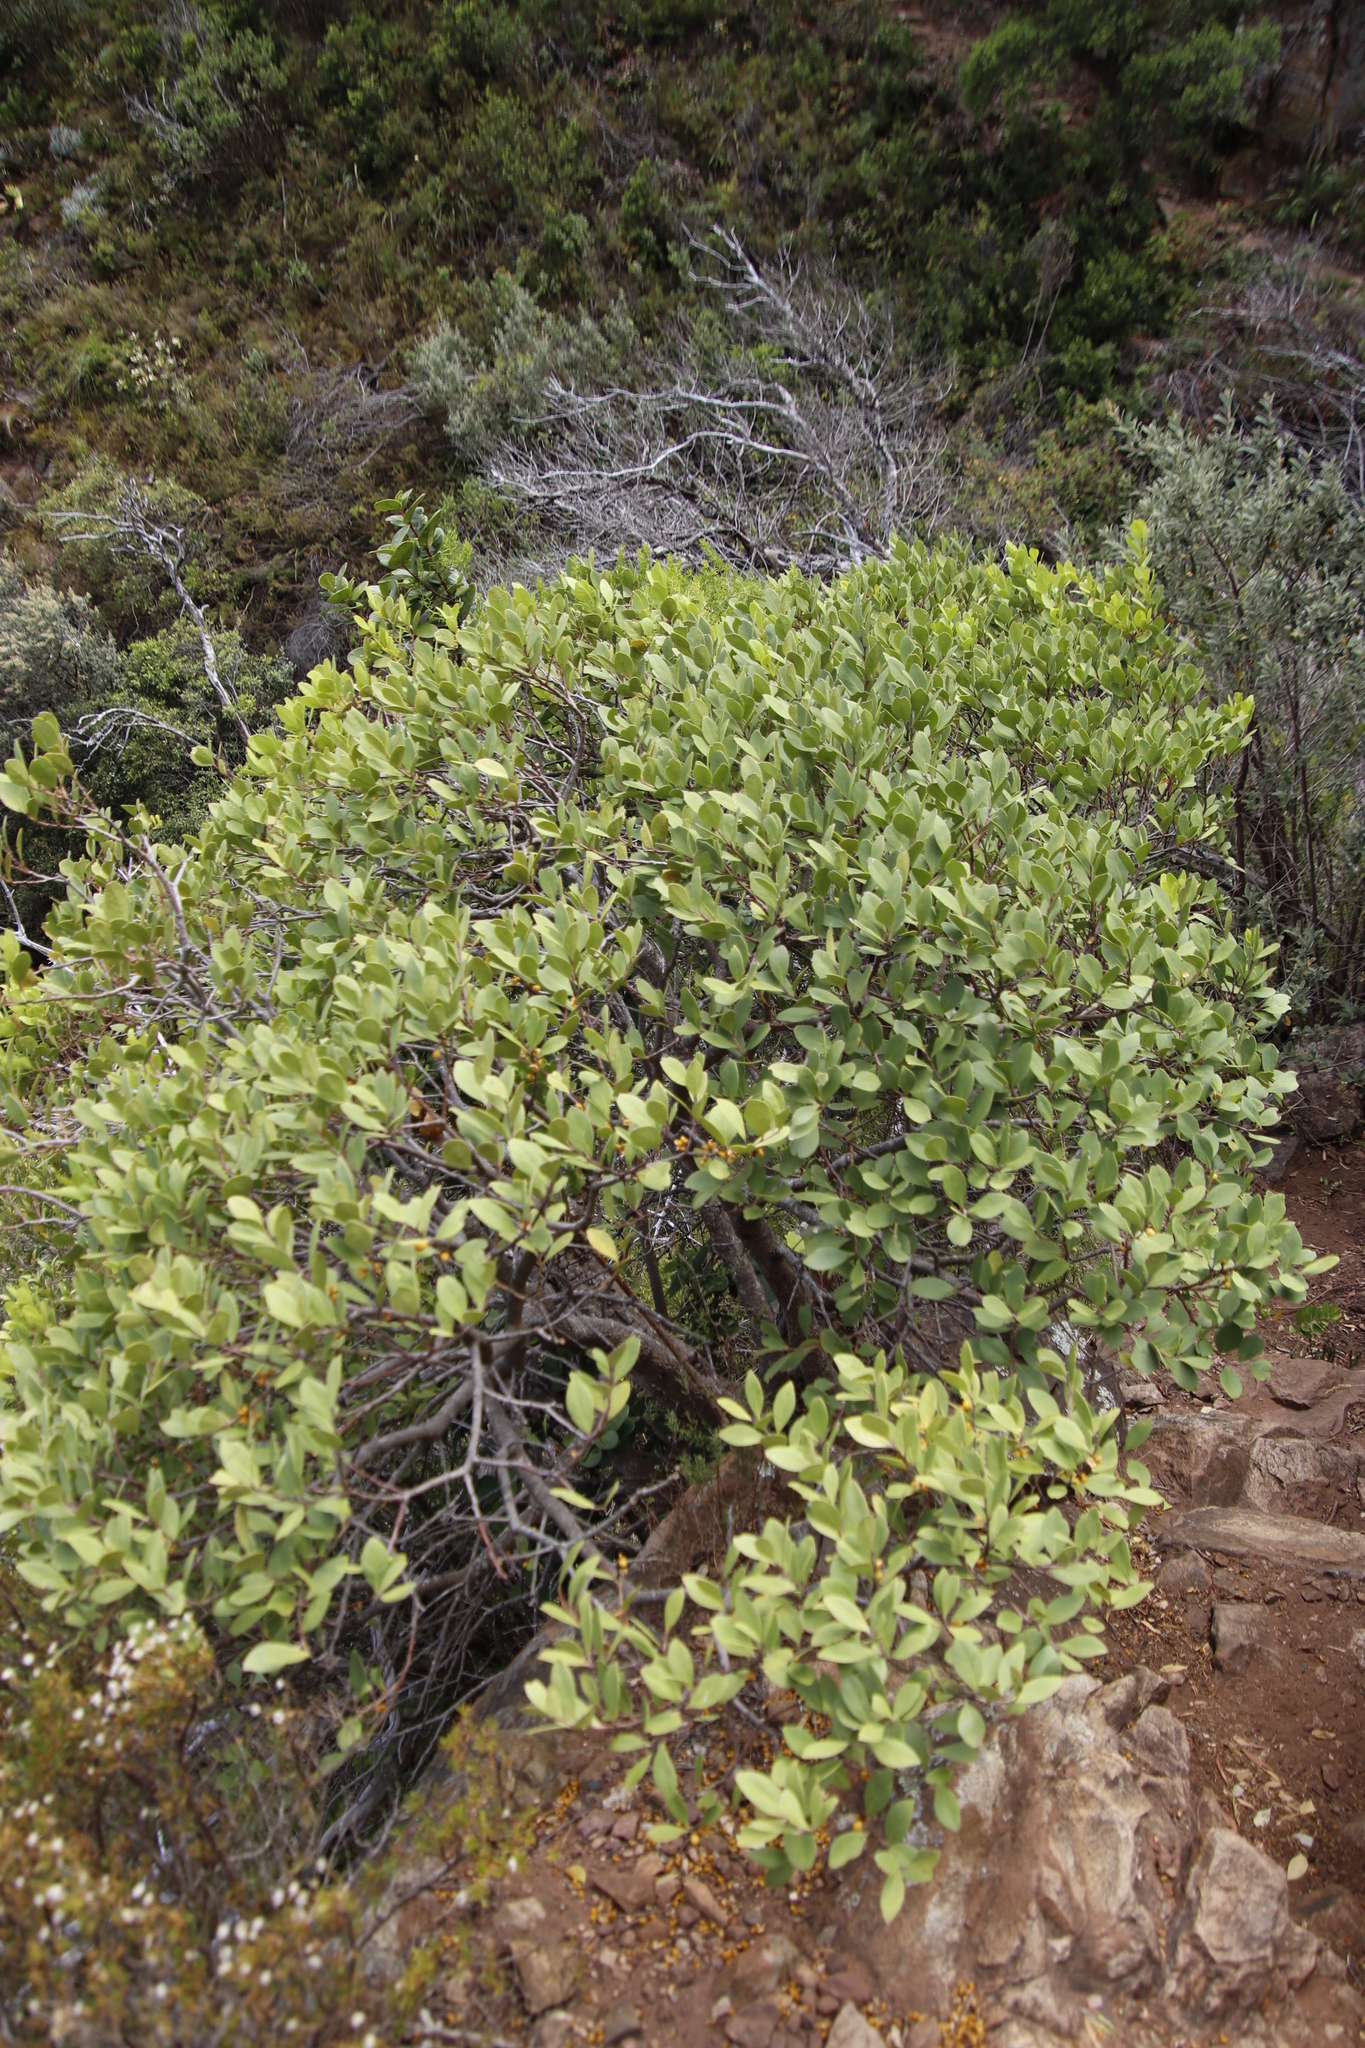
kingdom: Plantae
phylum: Tracheophyta
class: Magnoliopsida
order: Celastrales
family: Celastraceae
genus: Gymnosporia
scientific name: Gymnosporia laurina
